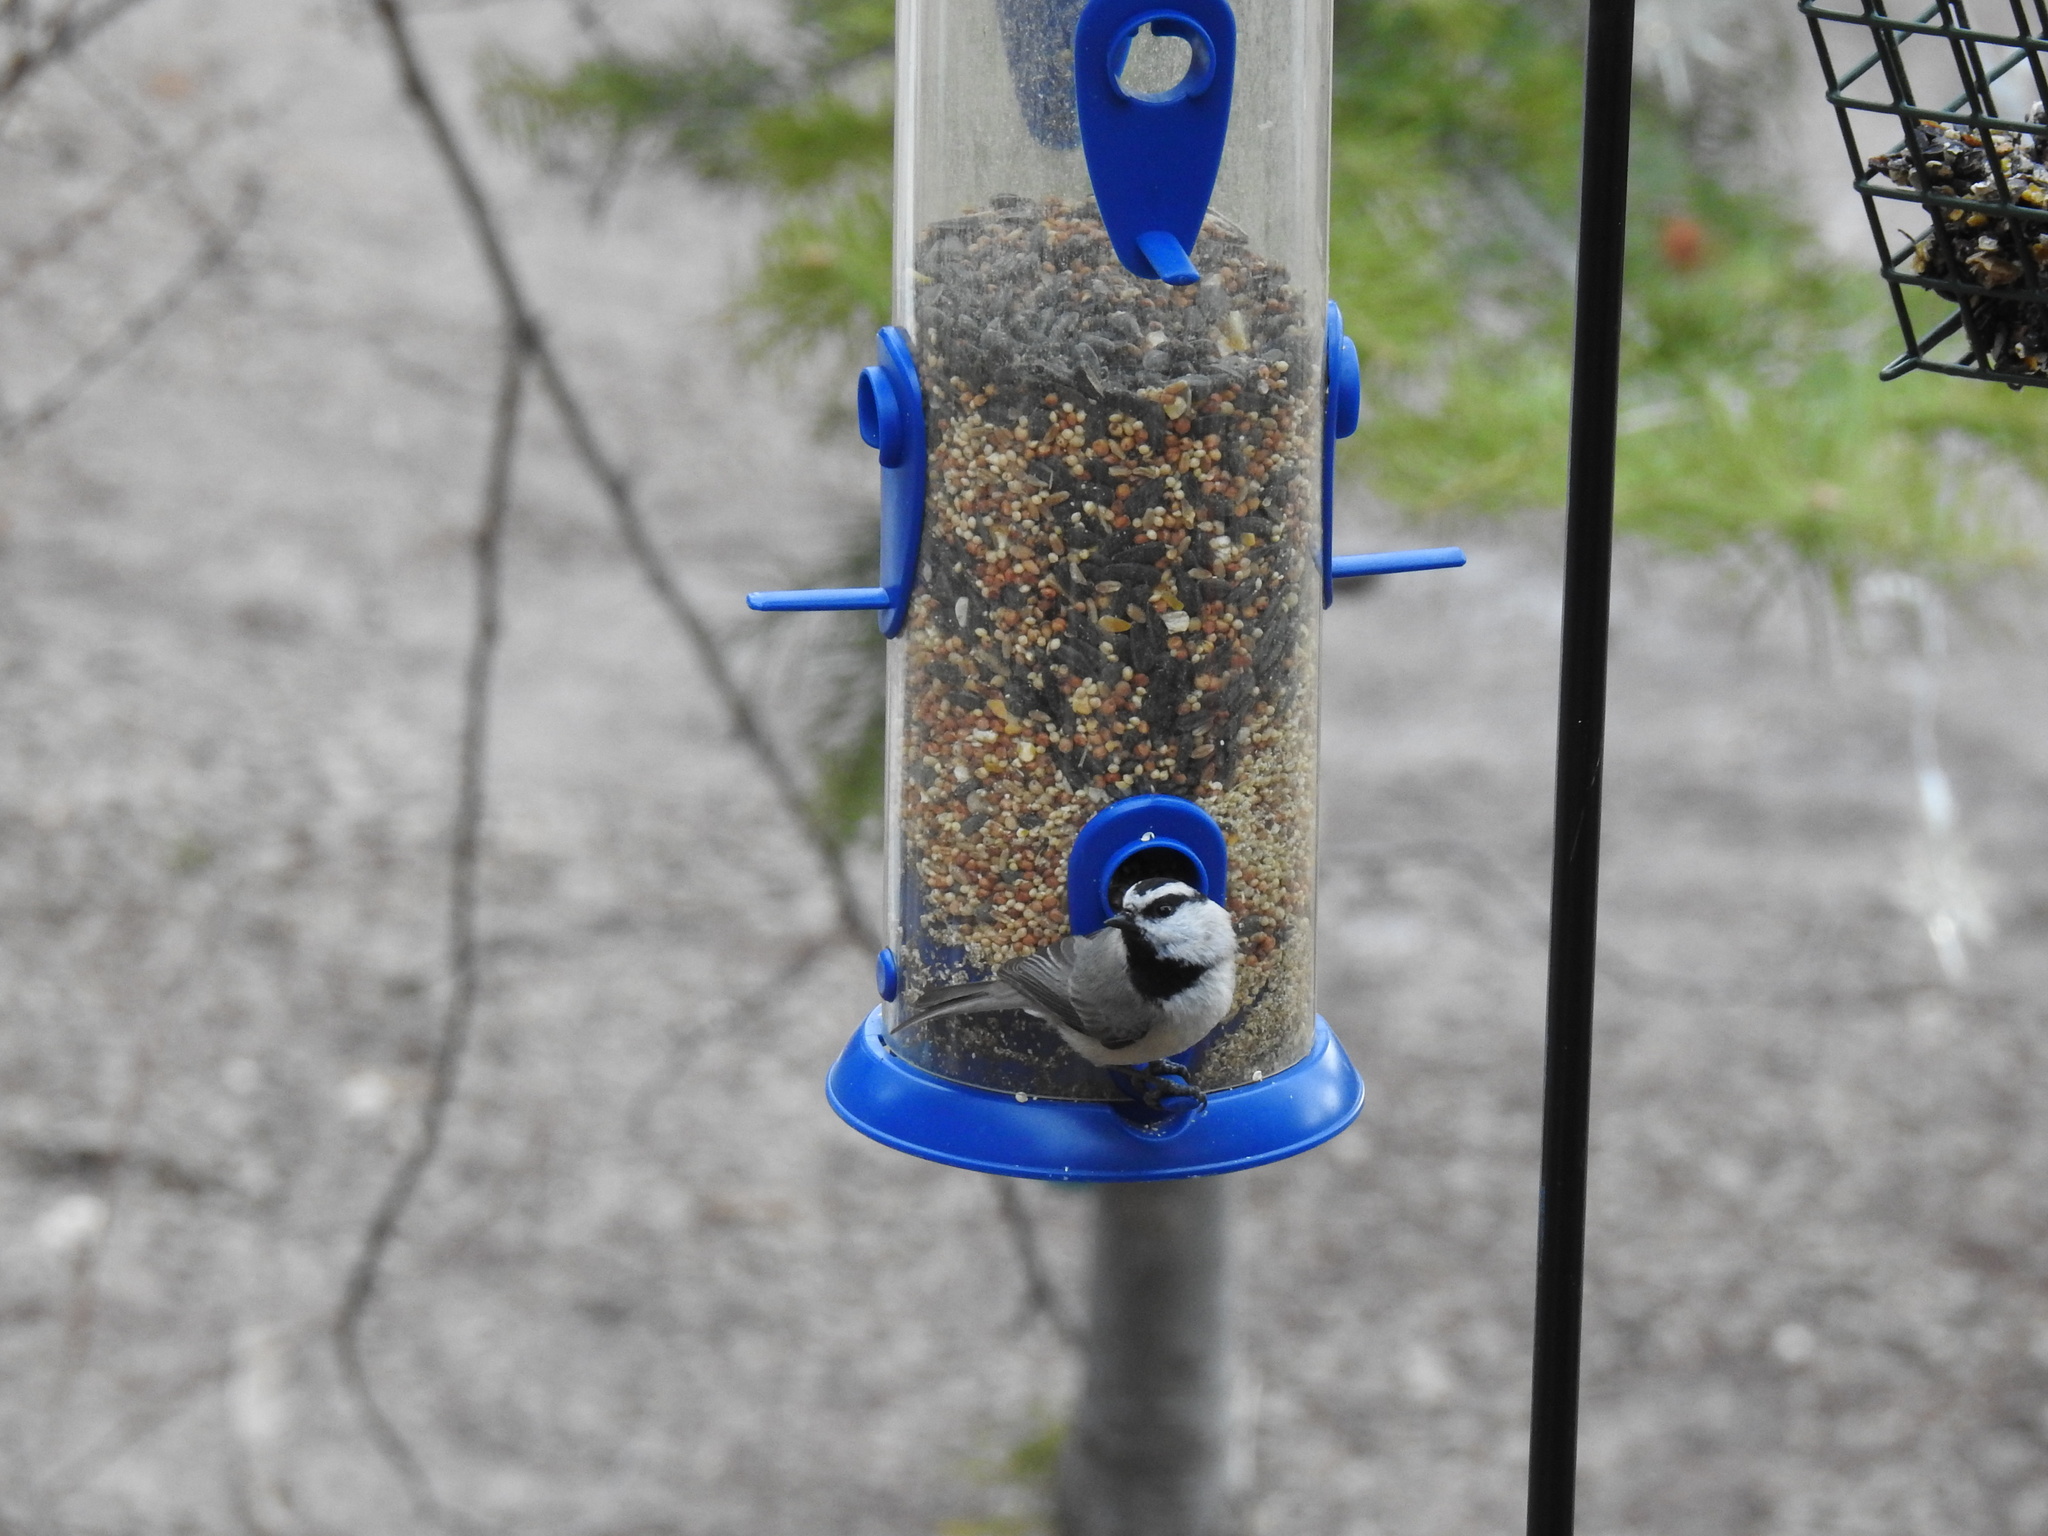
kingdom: Animalia
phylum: Chordata
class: Aves
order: Passeriformes
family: Paridae
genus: Poecile
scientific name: Poecile gambeli
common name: Mountain chickadee
